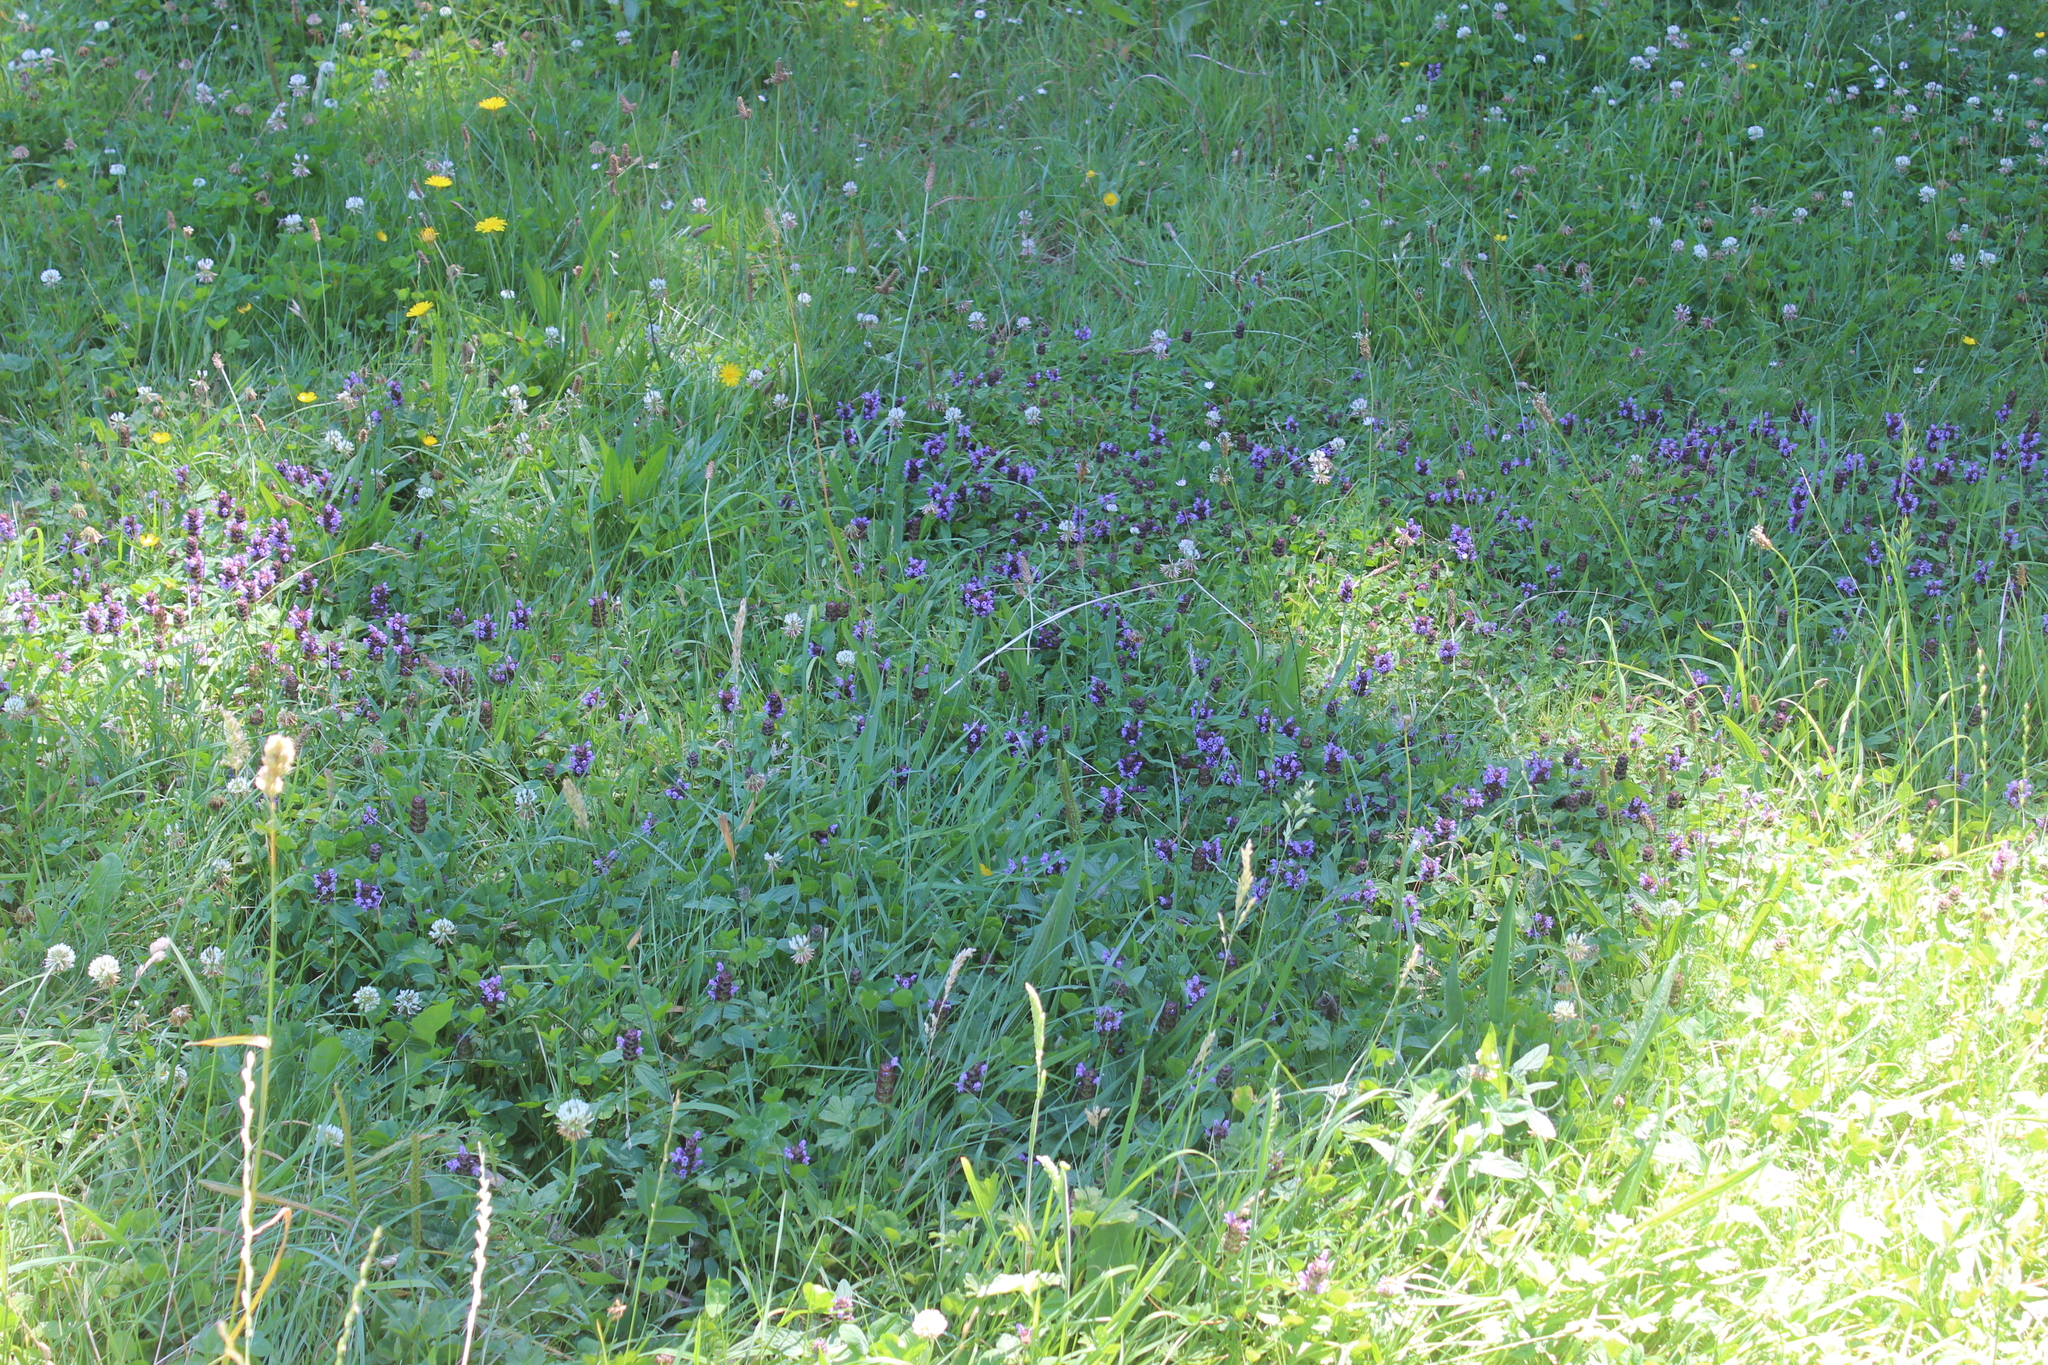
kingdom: Plantae
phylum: Tracheophyta
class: Magnoliopsida
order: Lamiales
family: Lamiaceae
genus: Prunella
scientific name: Prunella vulgaris
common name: Heal-all
